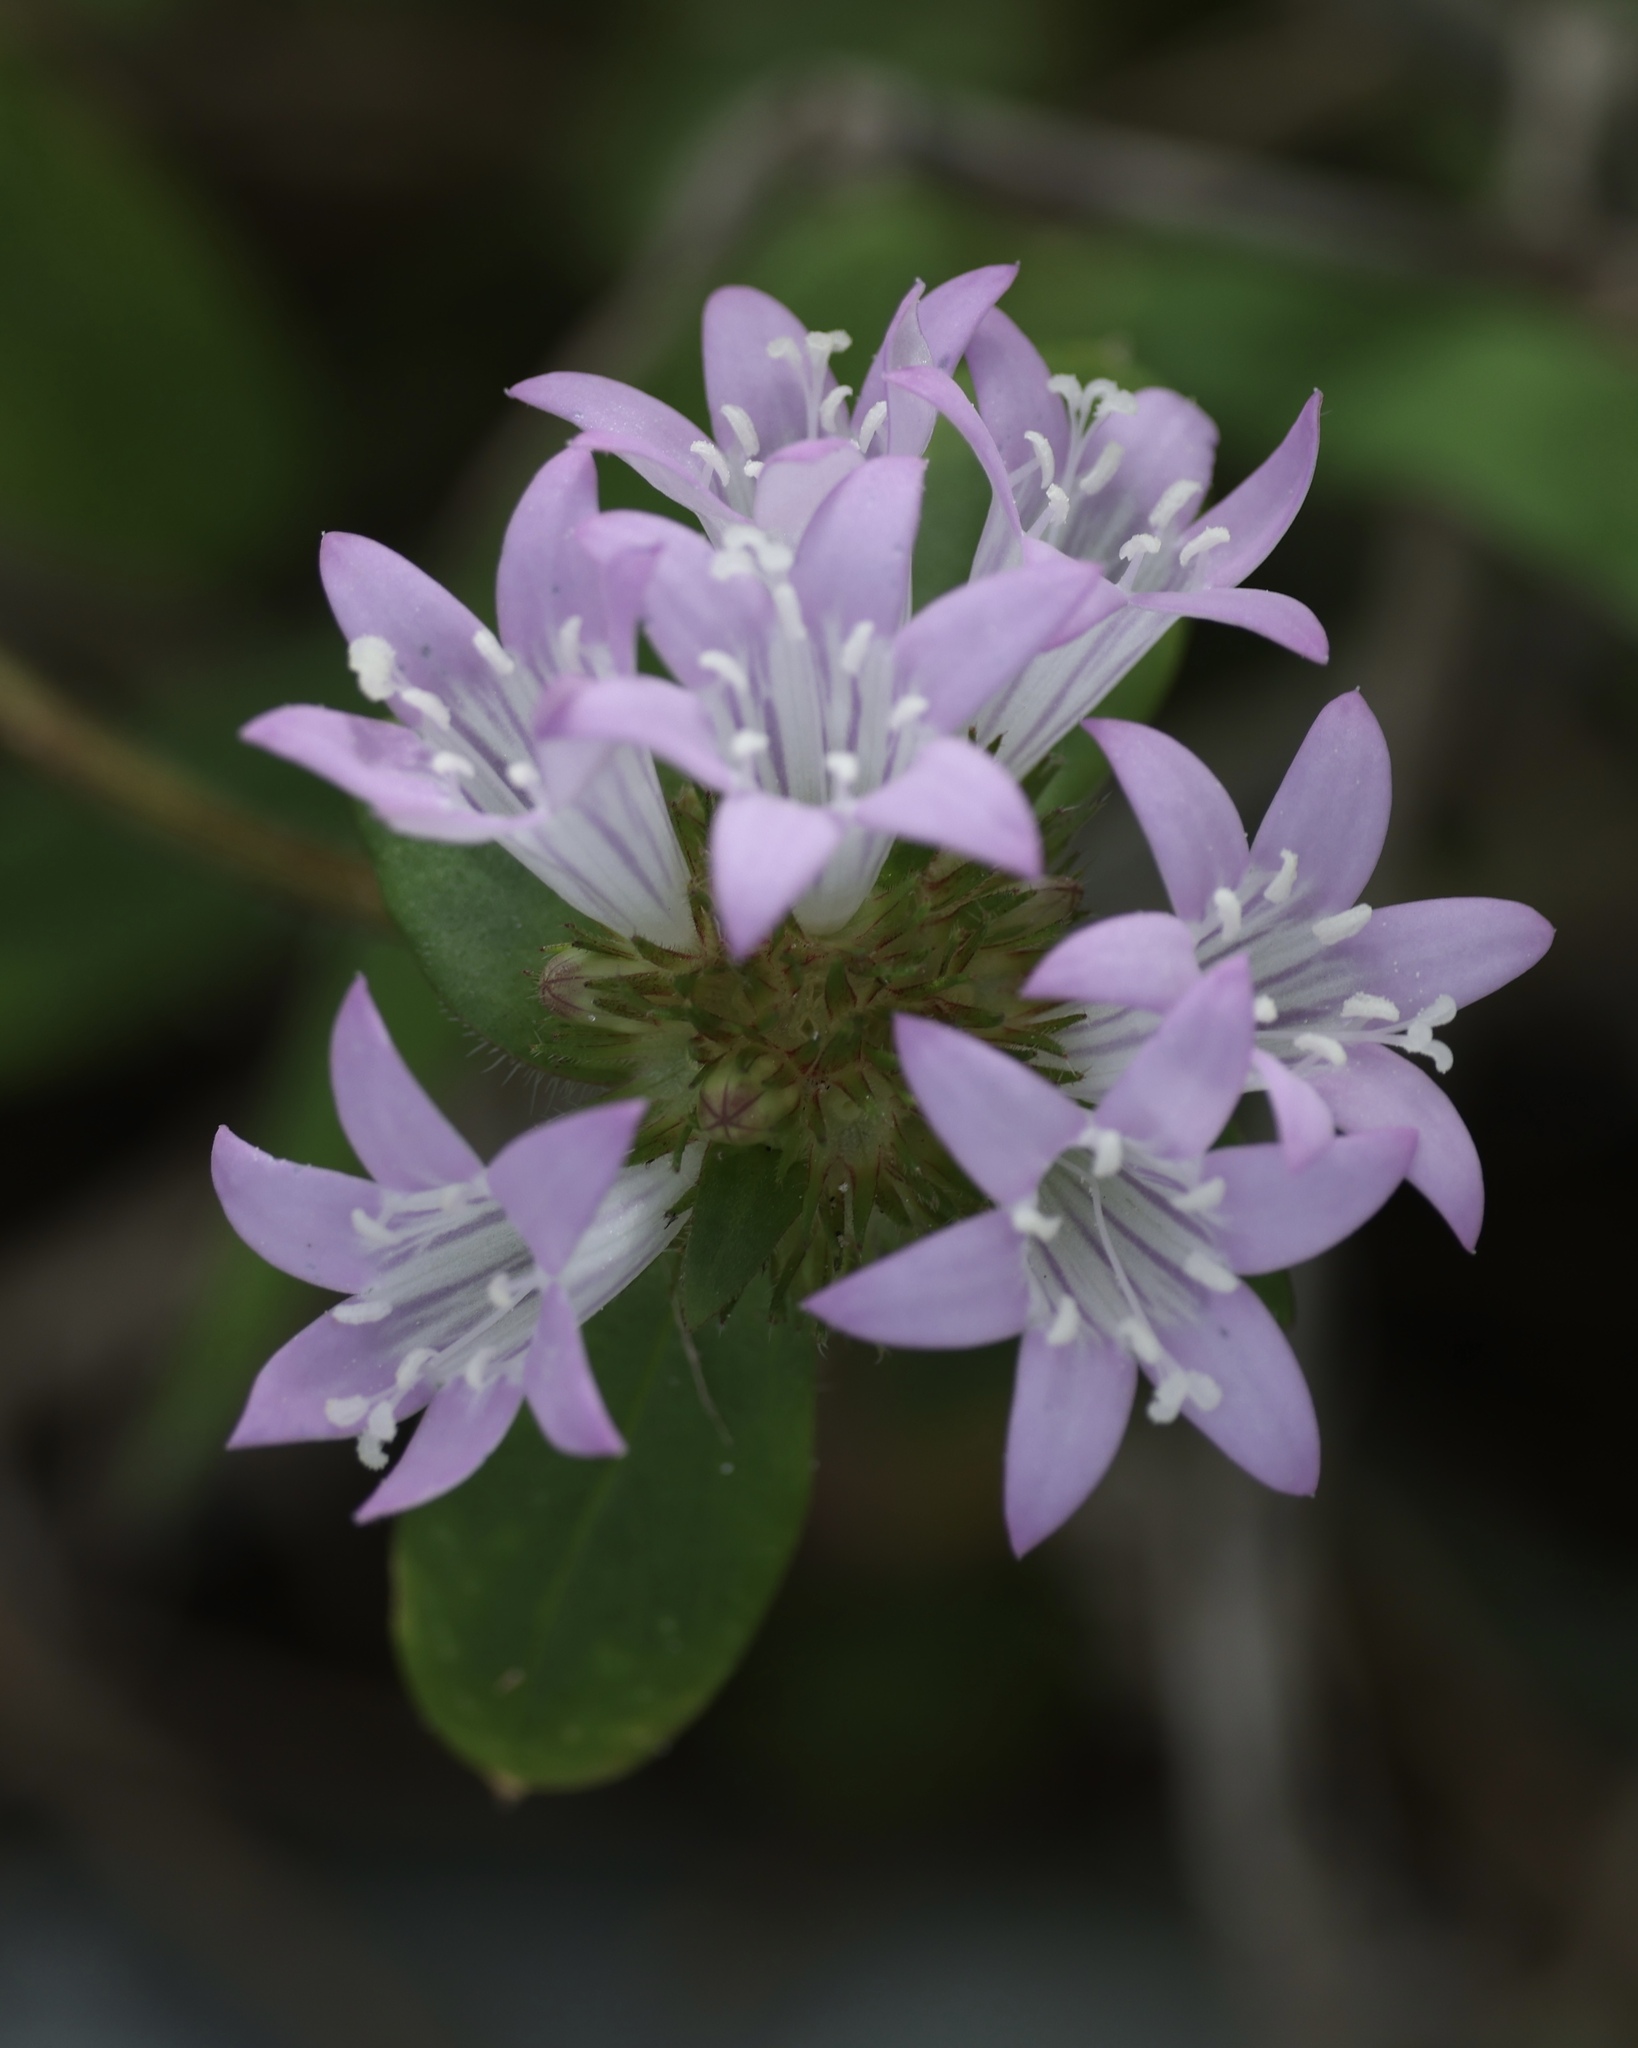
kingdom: Plantae
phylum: Tracheophyta
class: Magnoliopsida
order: Gentianales
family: Rubiaceae
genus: Richardia
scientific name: Richardia grandiflora
